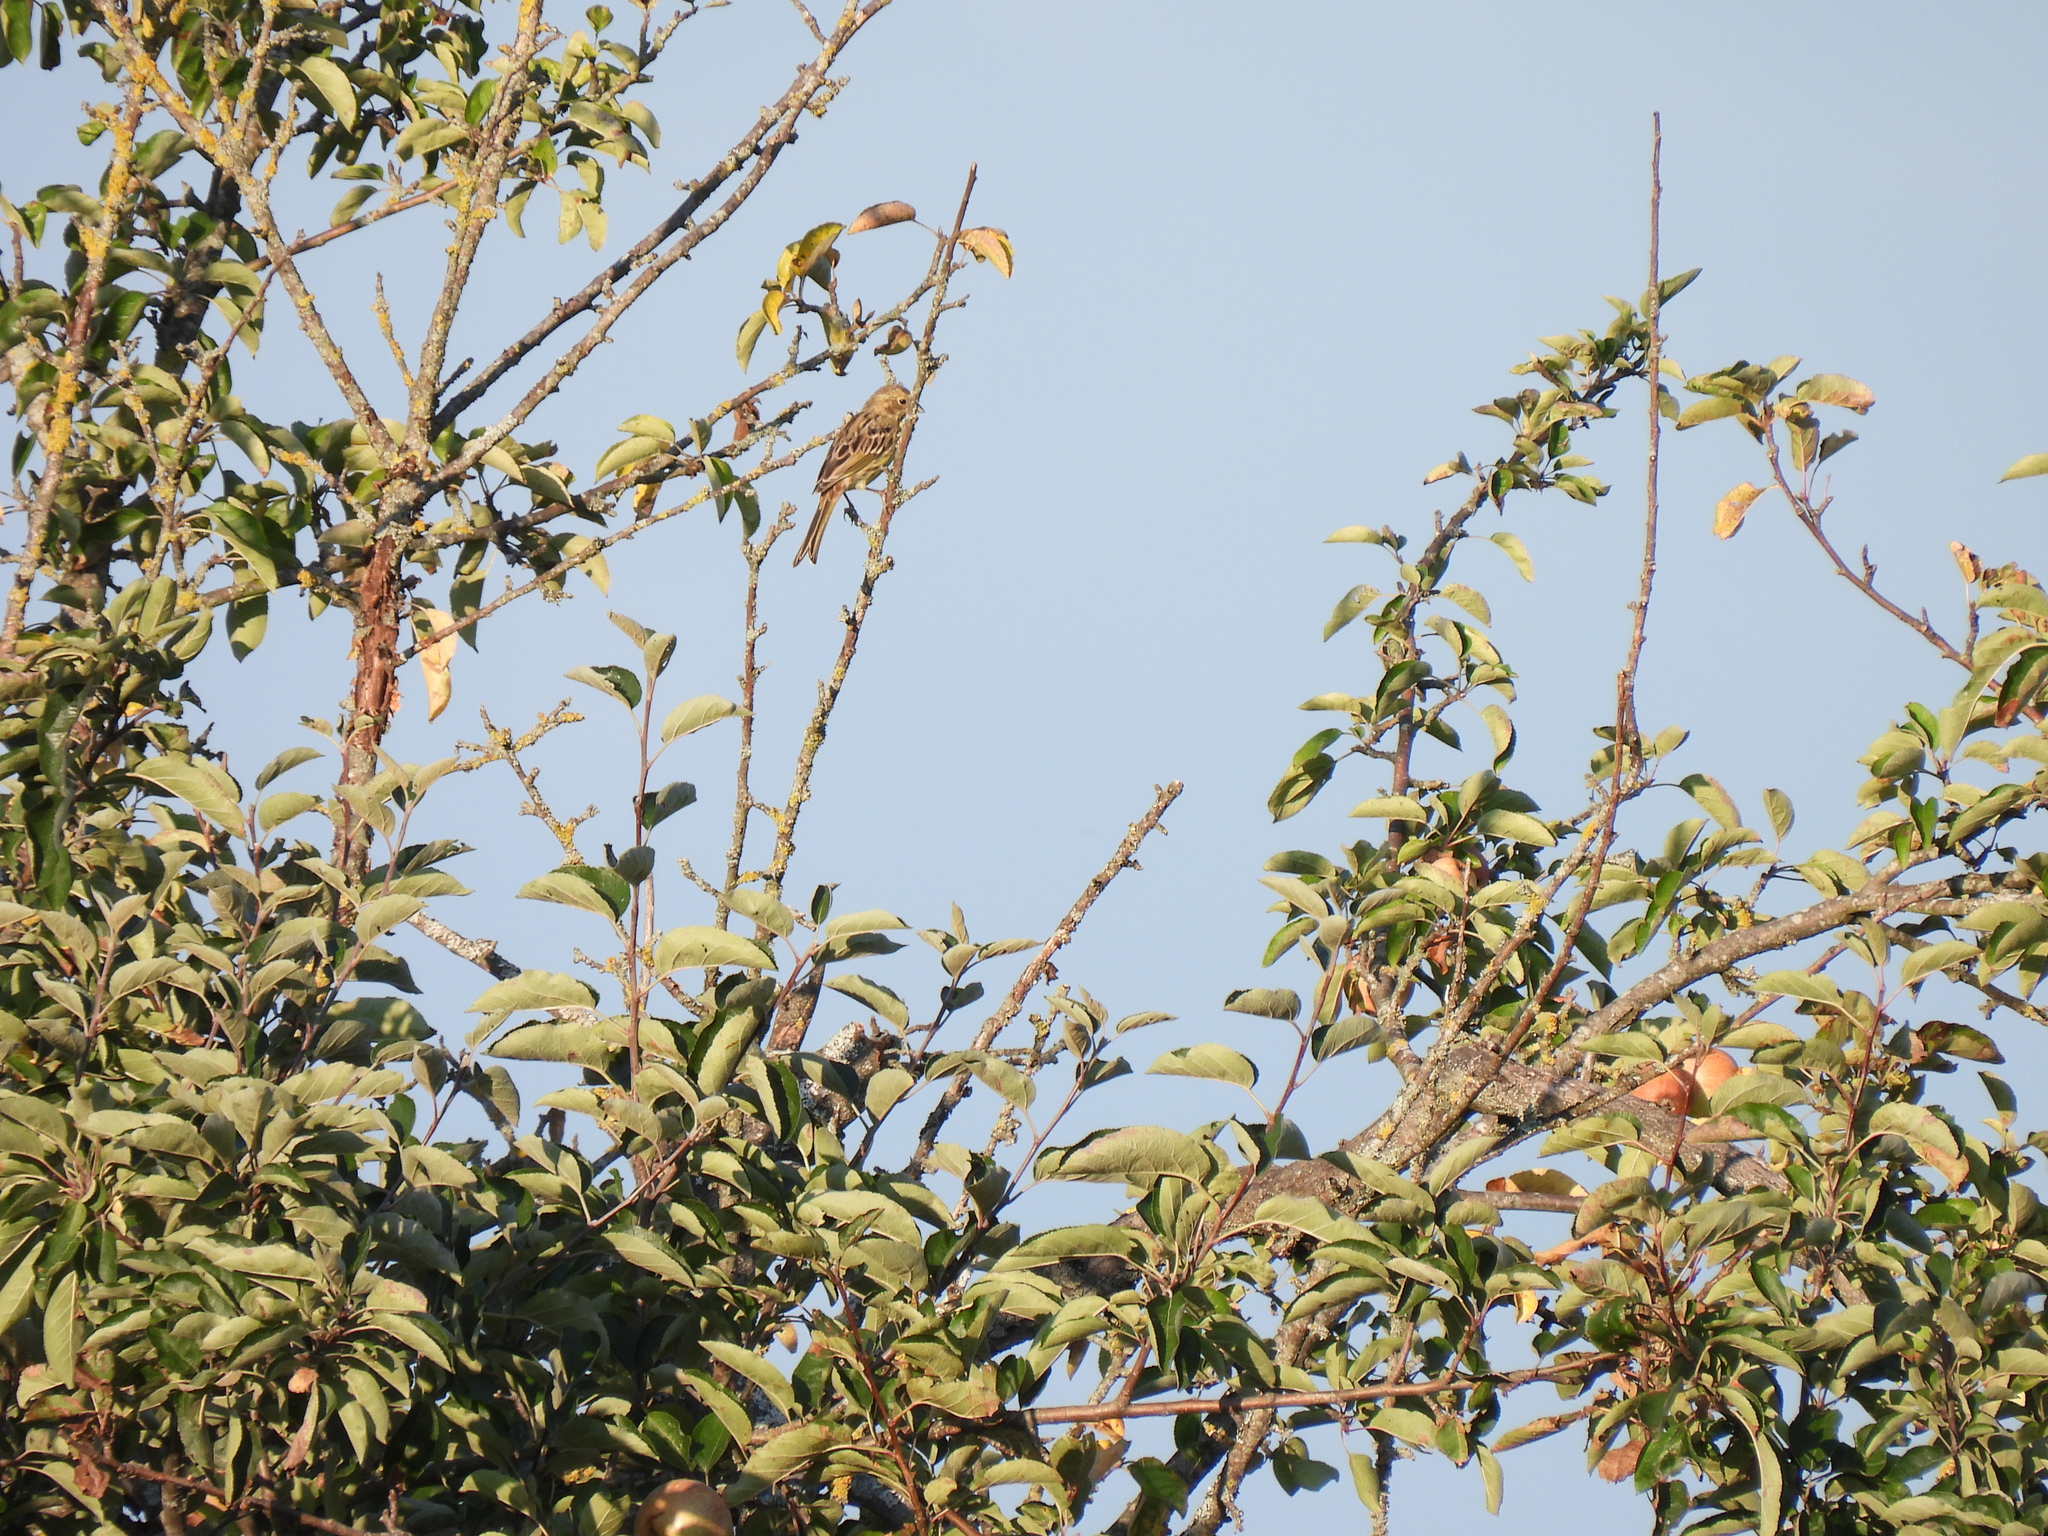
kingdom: Animalia
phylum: Chordata
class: Aves
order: Passeriformes
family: Emberizidae
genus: Emberiza
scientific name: Emberiza citrinella
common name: Yellowhammer
